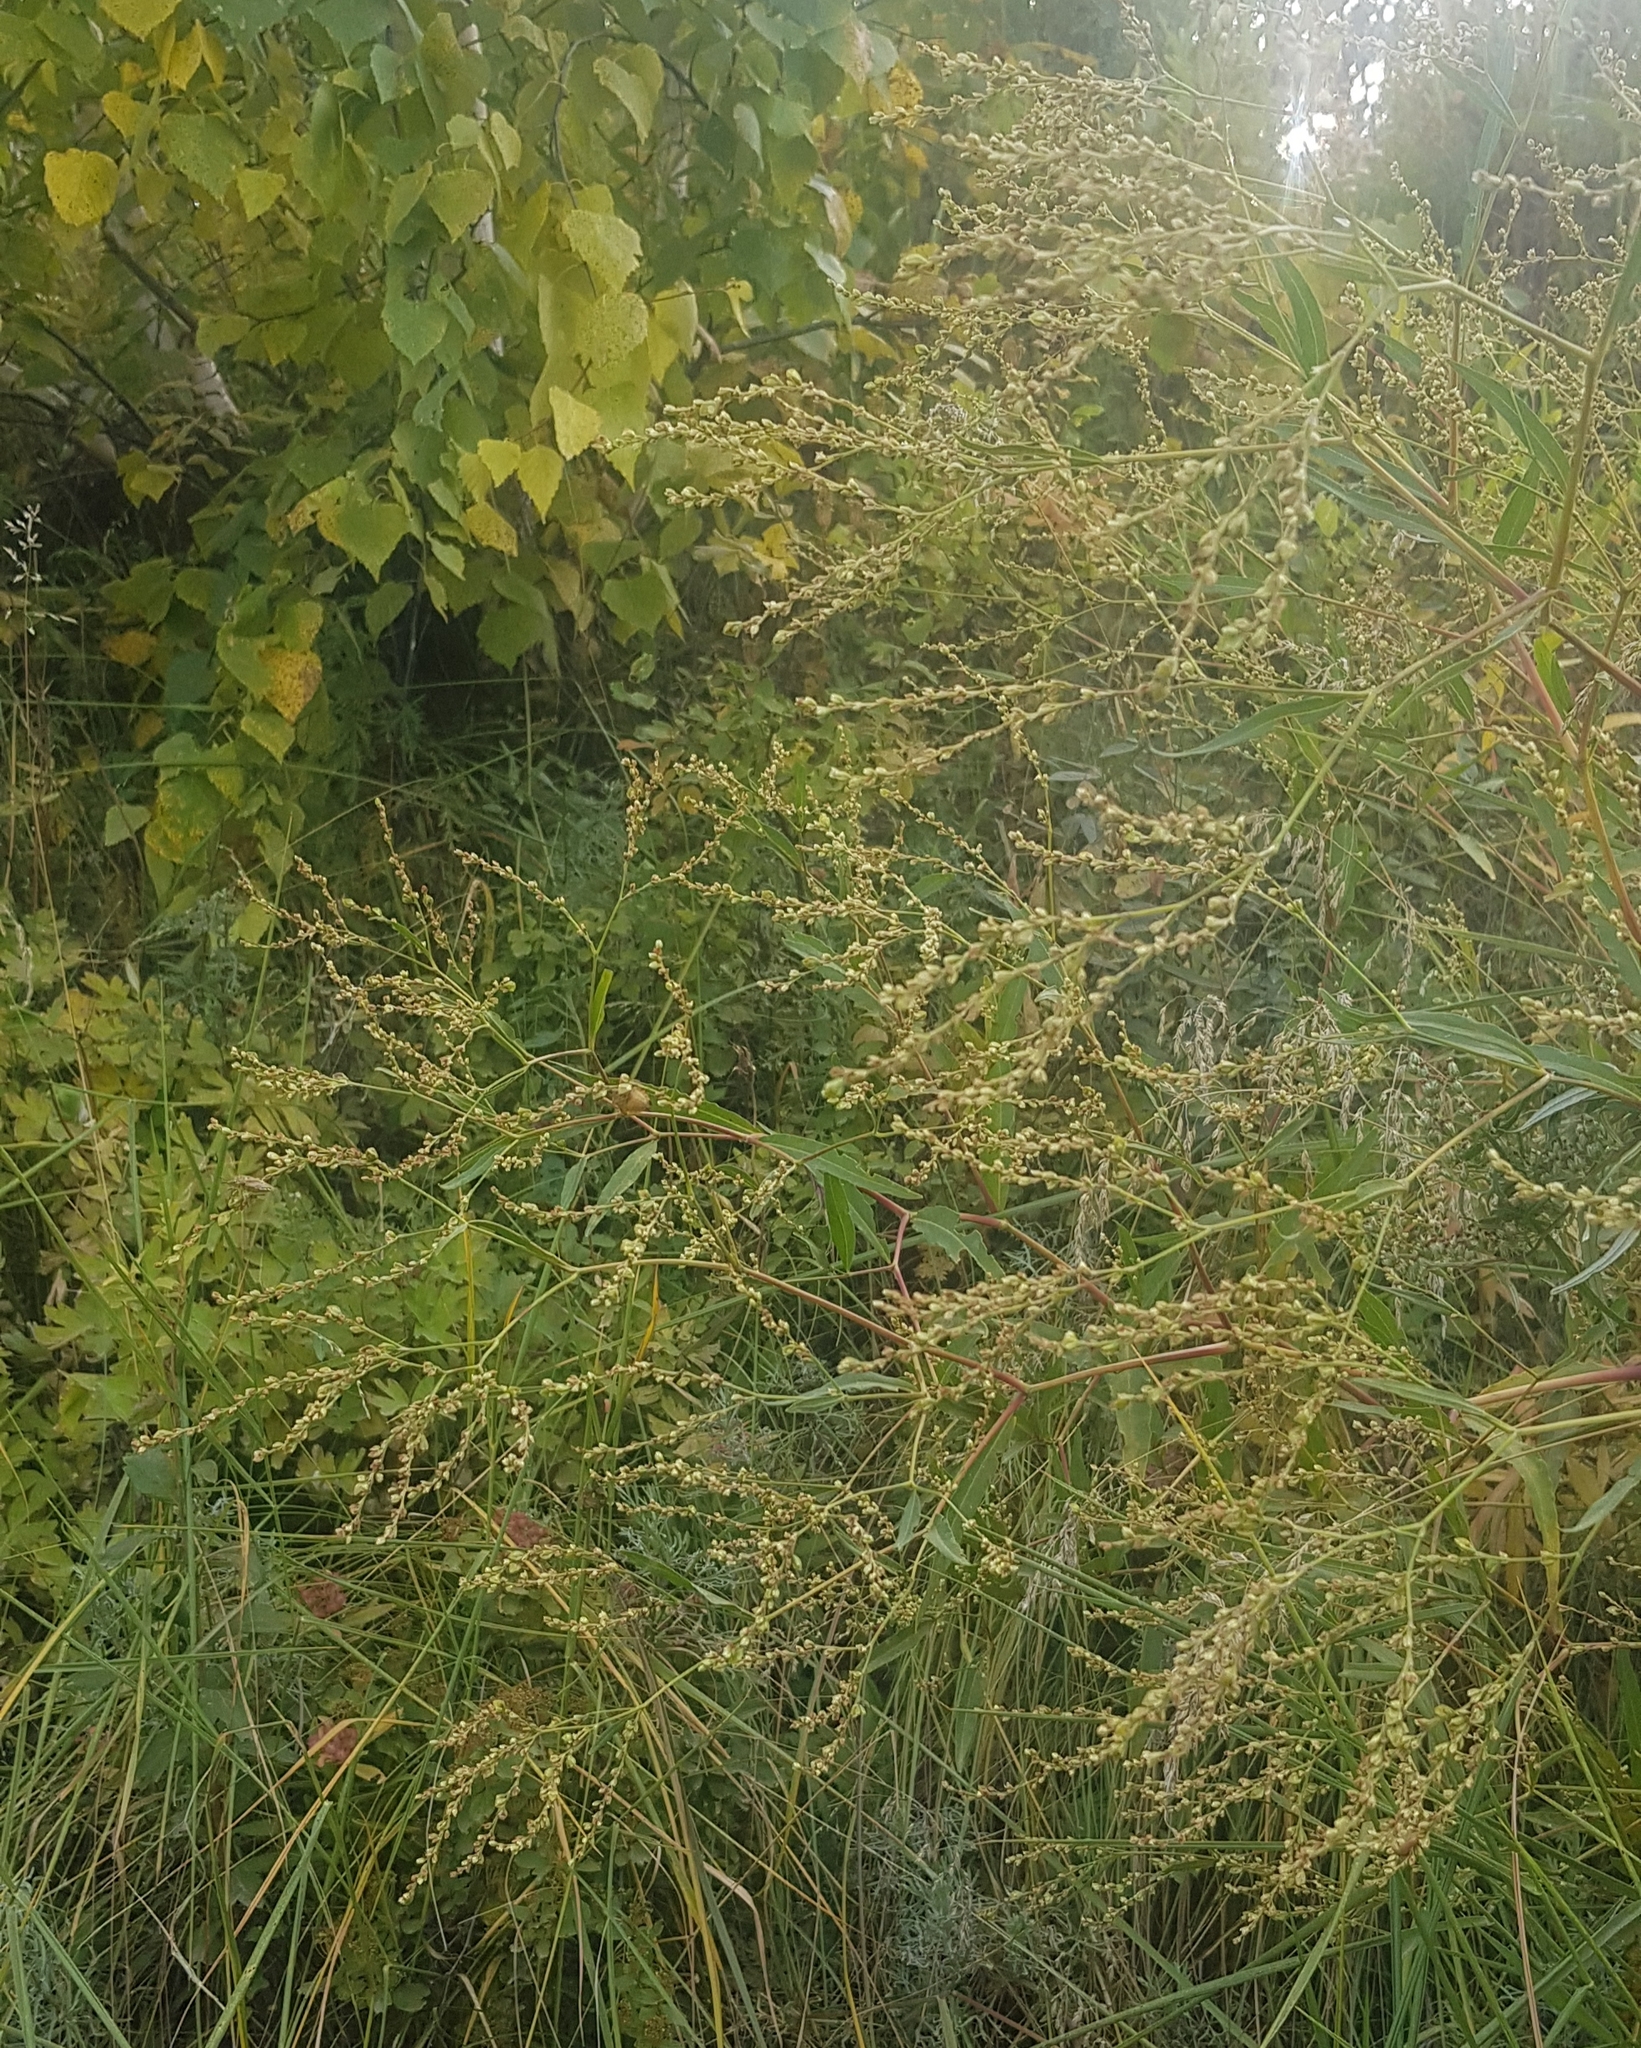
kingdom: Plantae
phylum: Tracheophyta
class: Magnoliopsida
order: Caryophyllales
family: Polygonaceae
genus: Koenigia
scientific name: Koenigia divaricata
